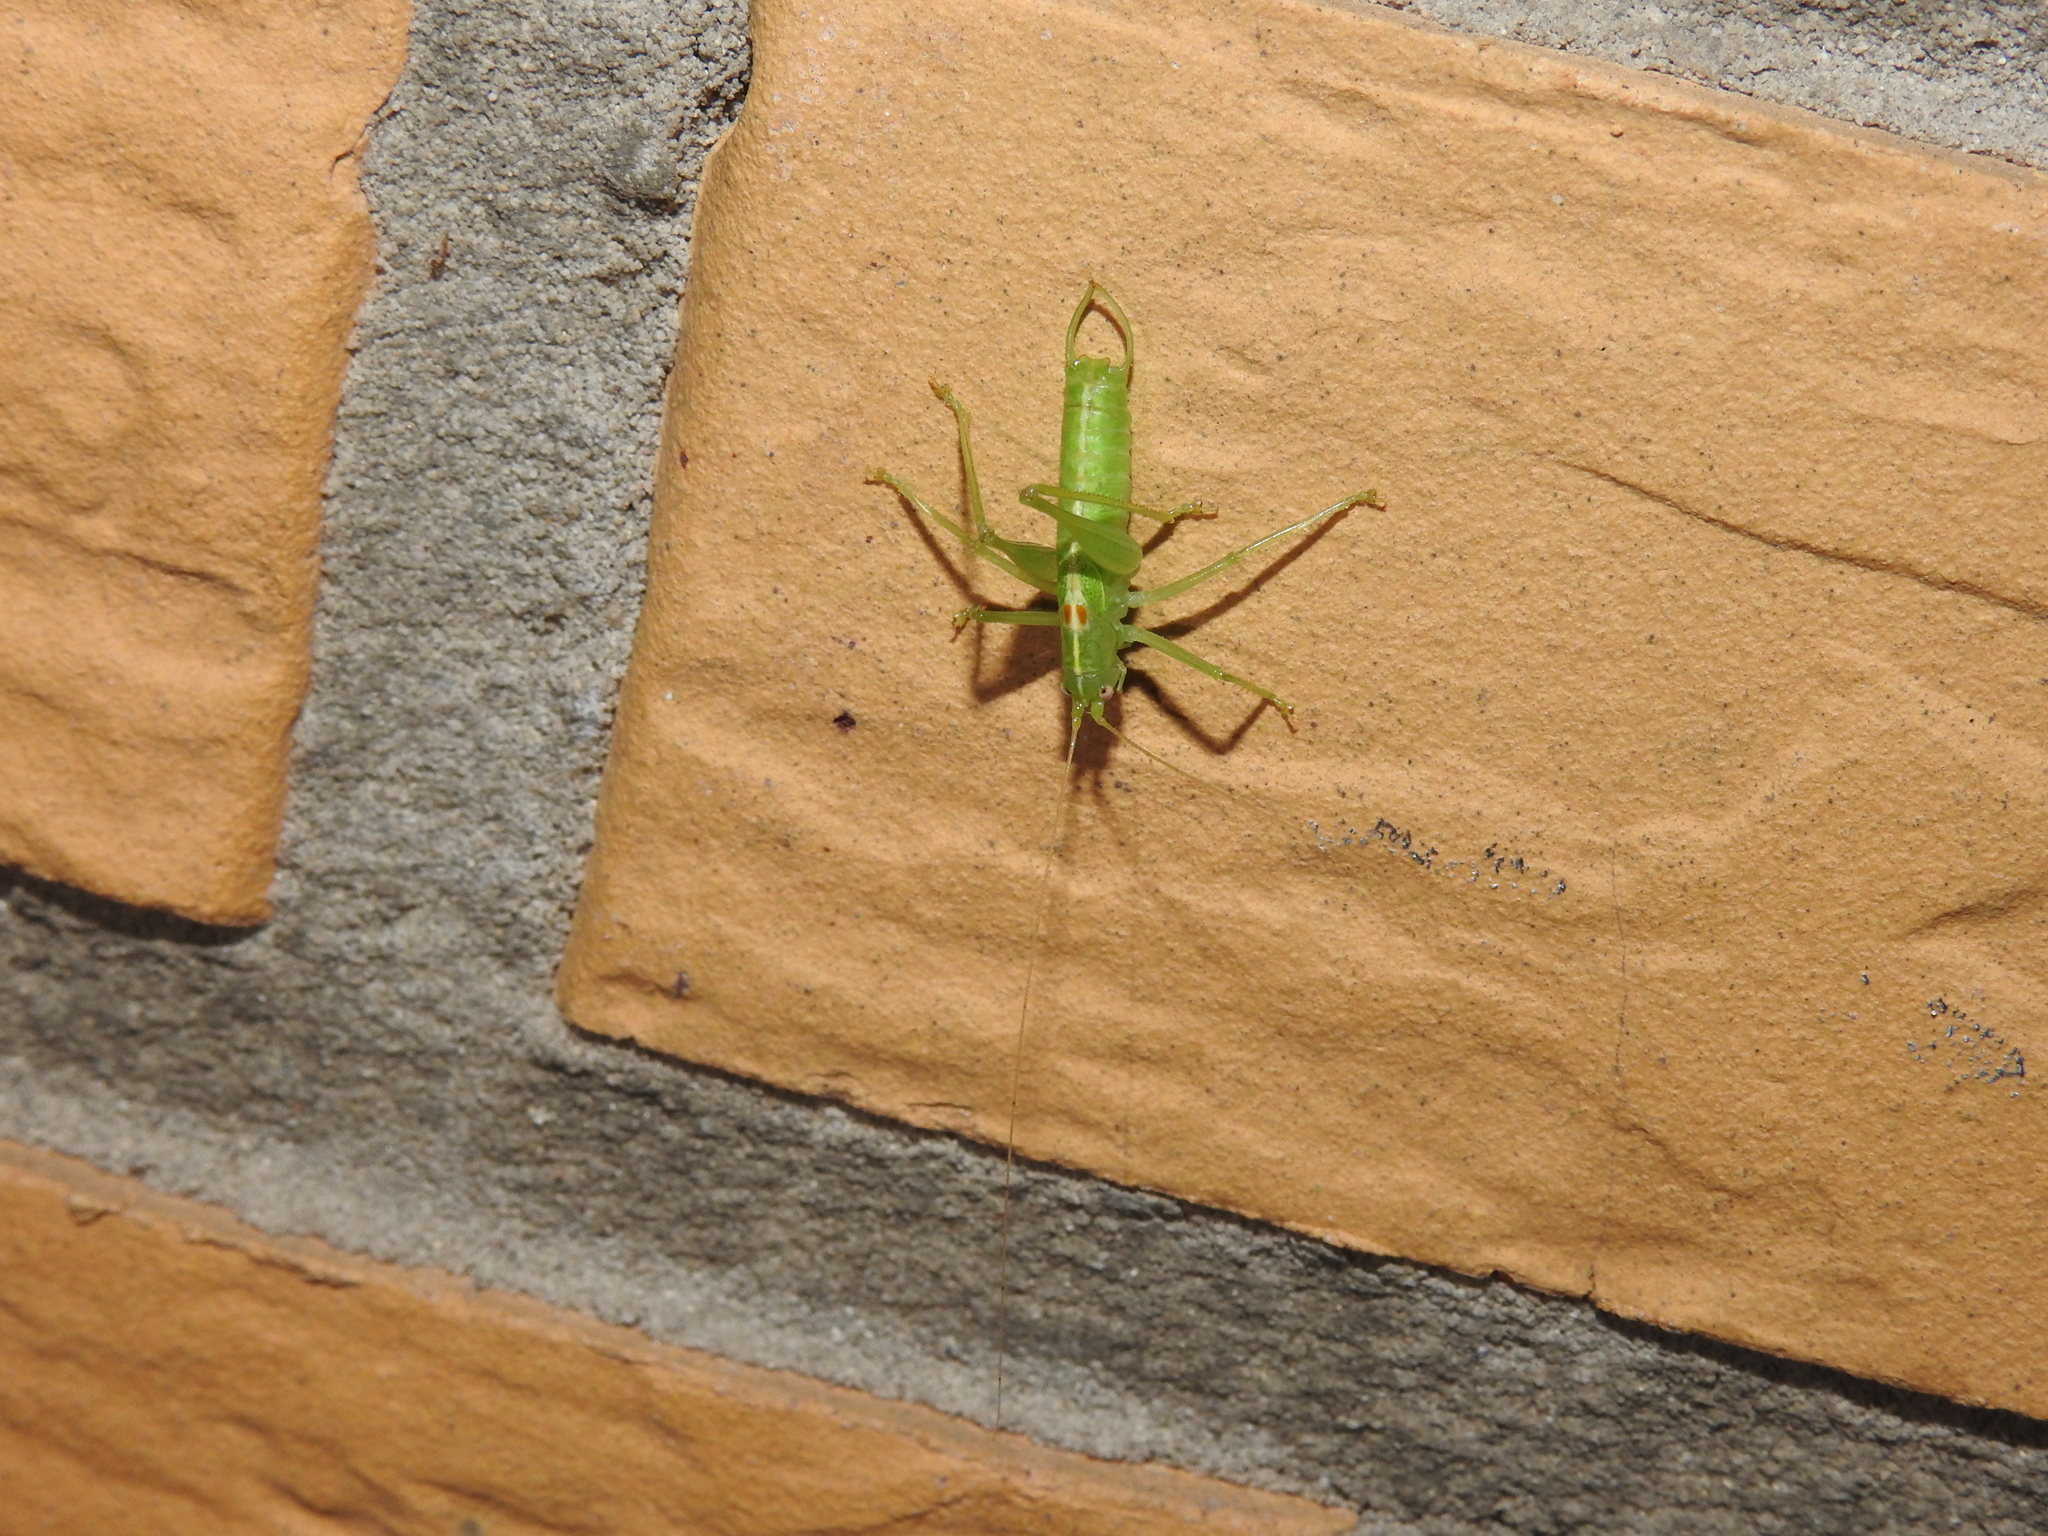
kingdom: Animalia
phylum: Arthropoda
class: Insecta
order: Orthoptera
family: Tettigoniidae
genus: Meconema
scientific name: Meconema meridionale
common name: Southern oak bush-cricket
